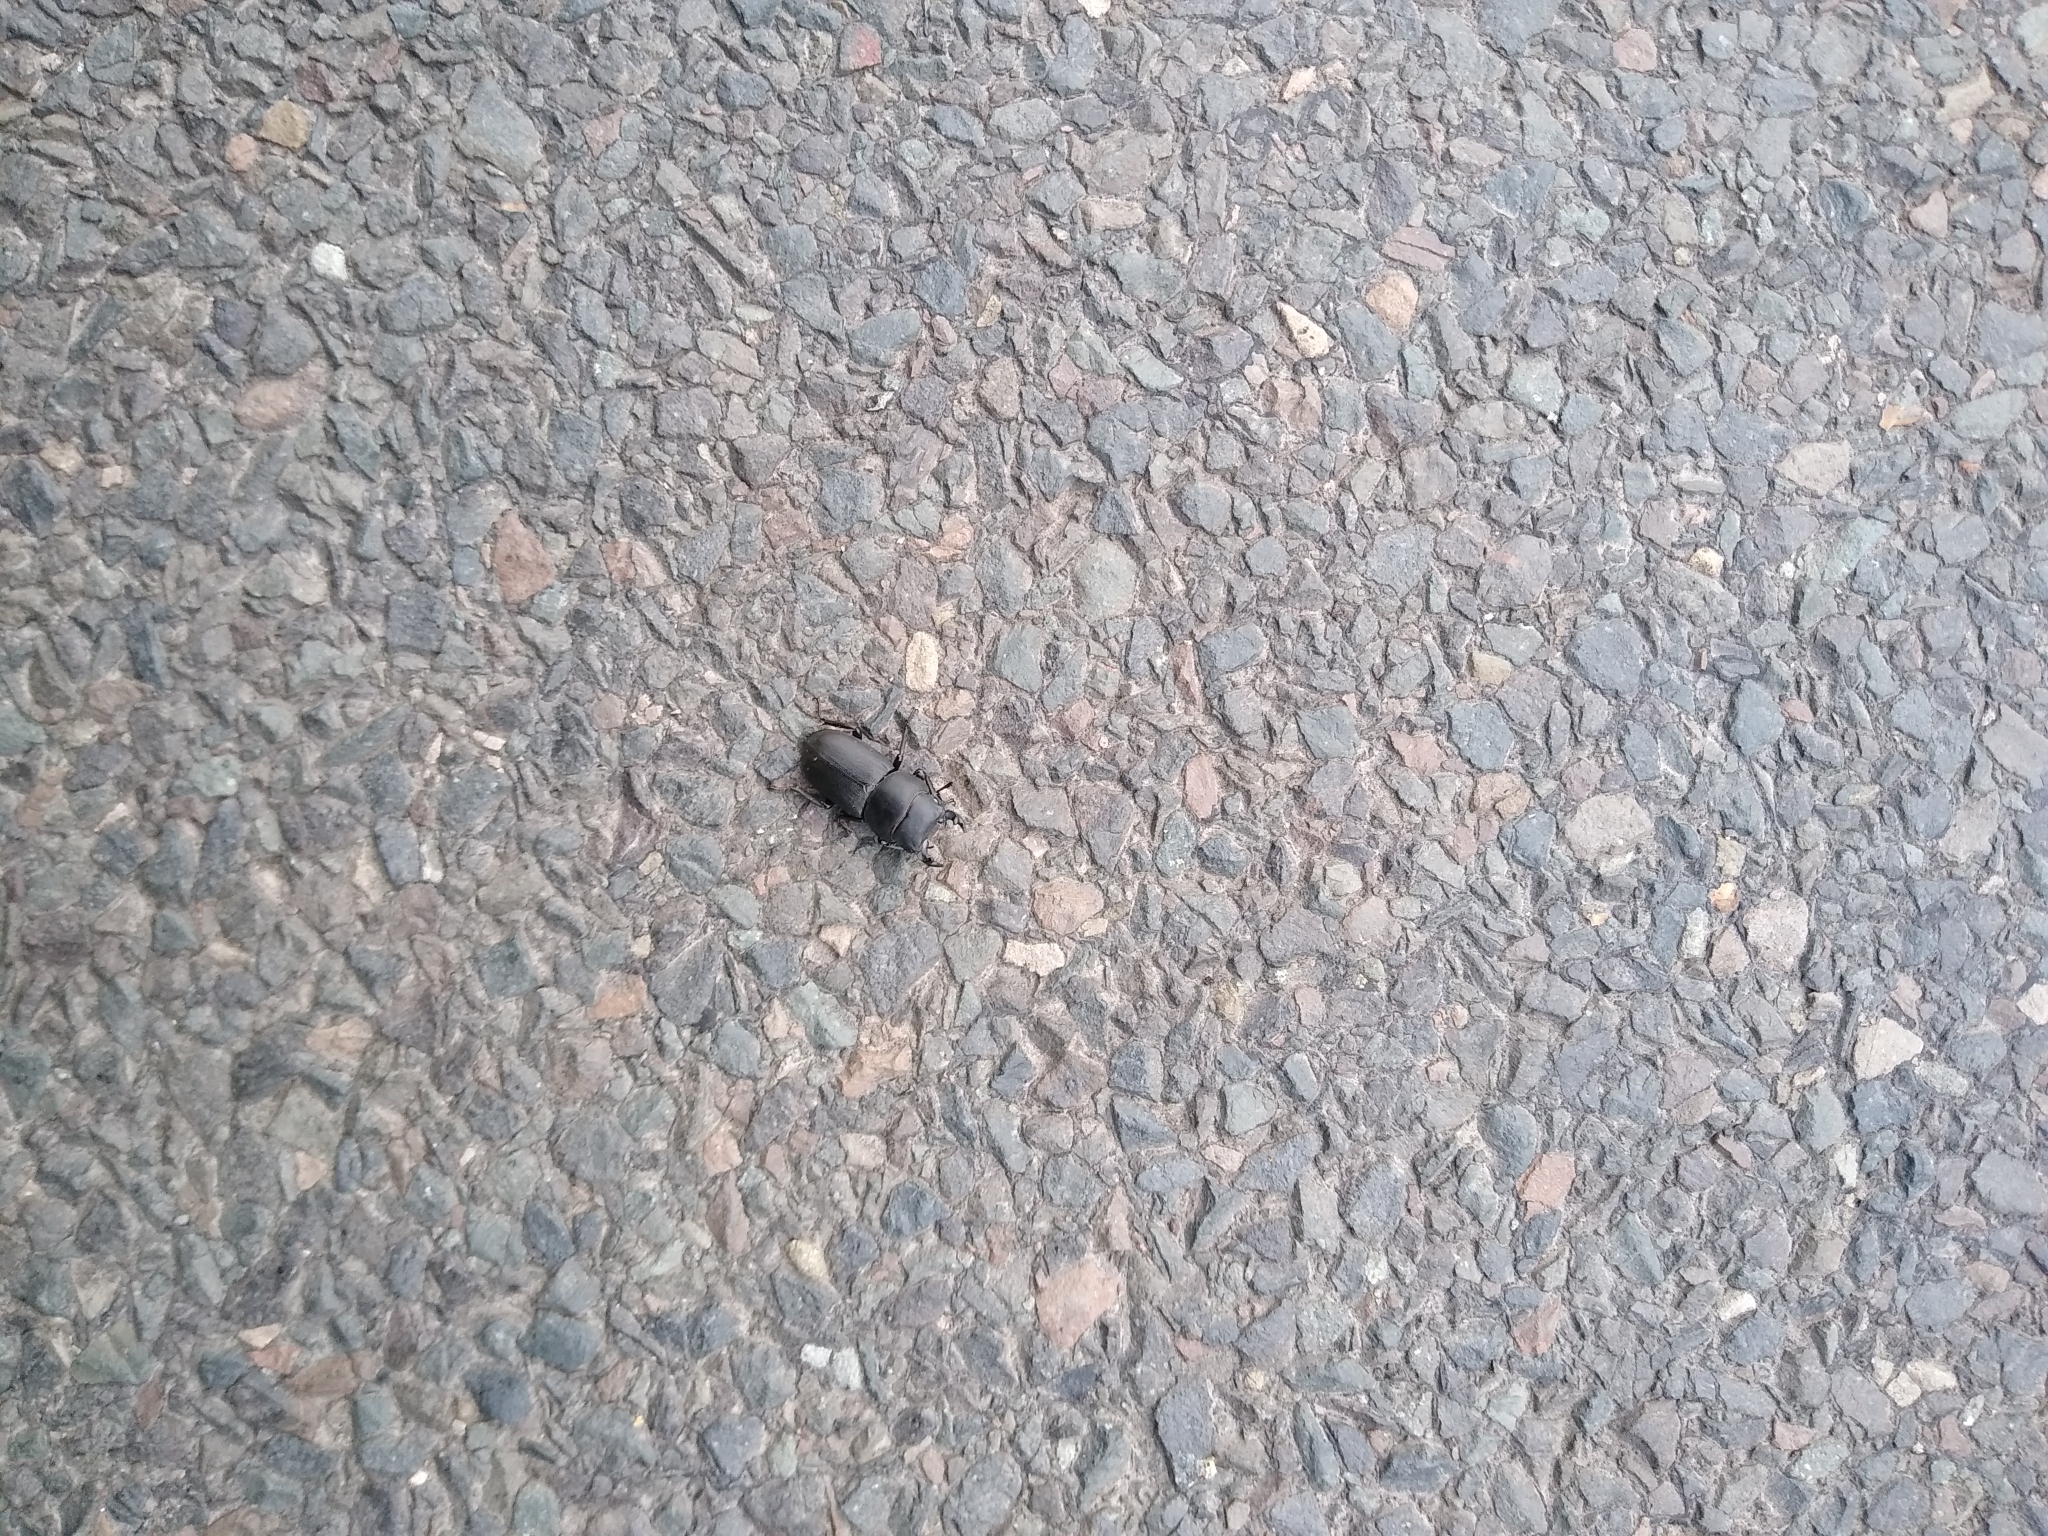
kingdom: Animalia
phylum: Arthropoda
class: Insecta
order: Coleoptera
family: Lucanidae
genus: Dorcus
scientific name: Dorcus parallelipipedus
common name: Lesser stag beetle
